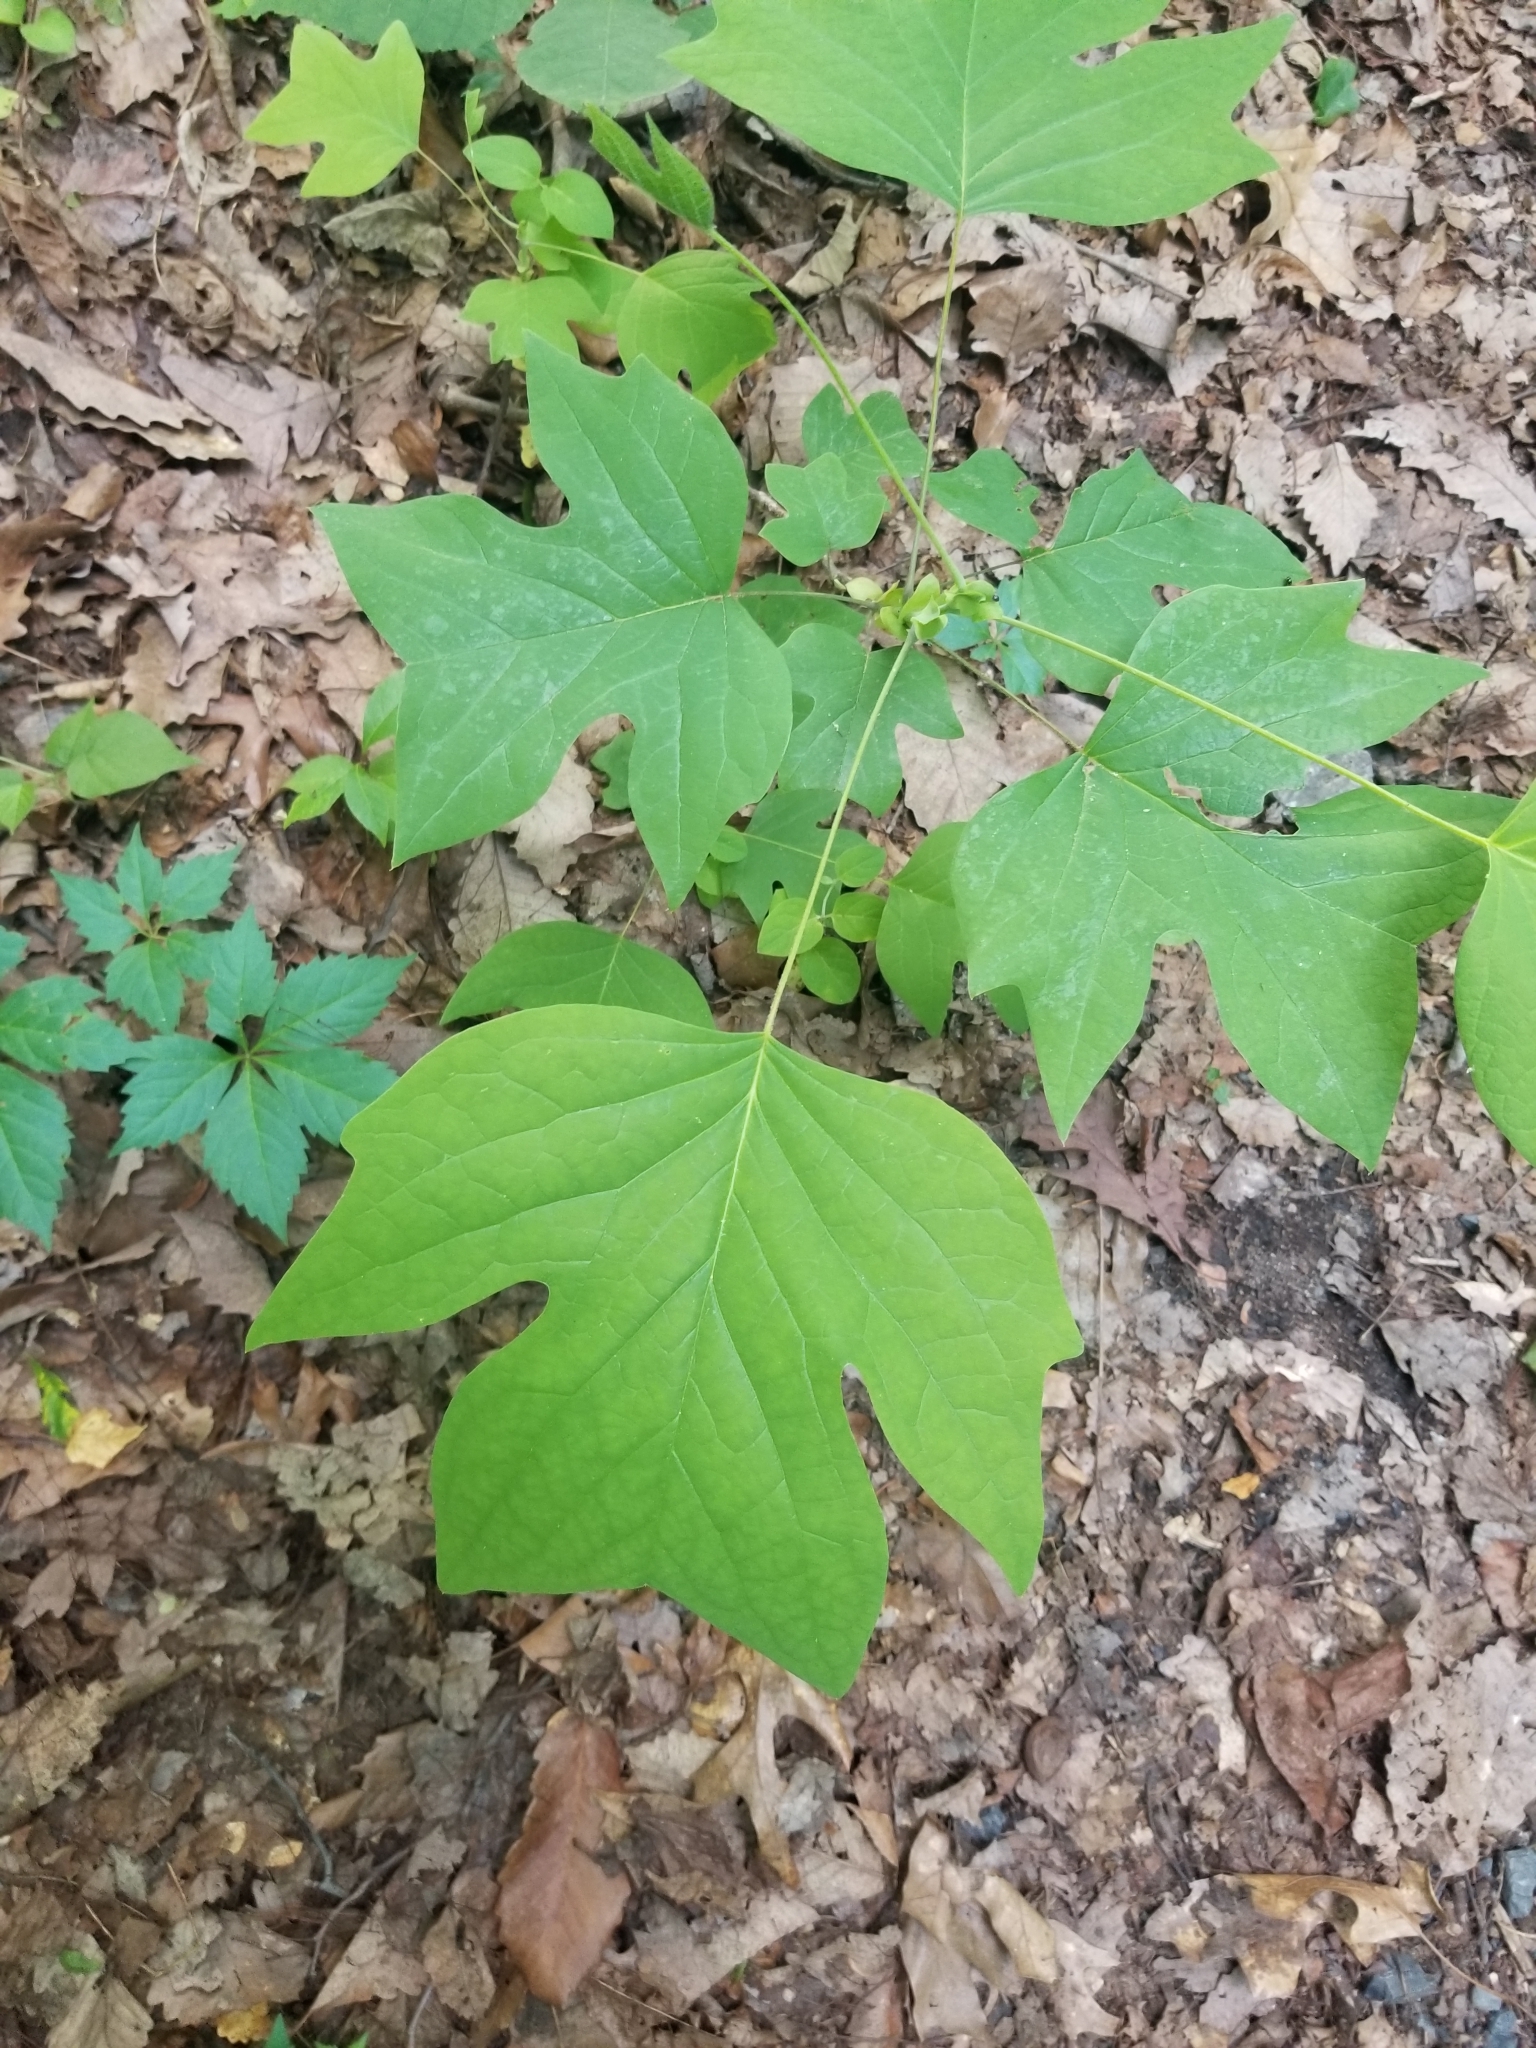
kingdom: Plantae
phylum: Tracheophyta
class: Magnoliopsida
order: Magnoliales
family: Magnoliaceae
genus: Liriodendron
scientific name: Liriodendron tulipifera
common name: Tulip tree
